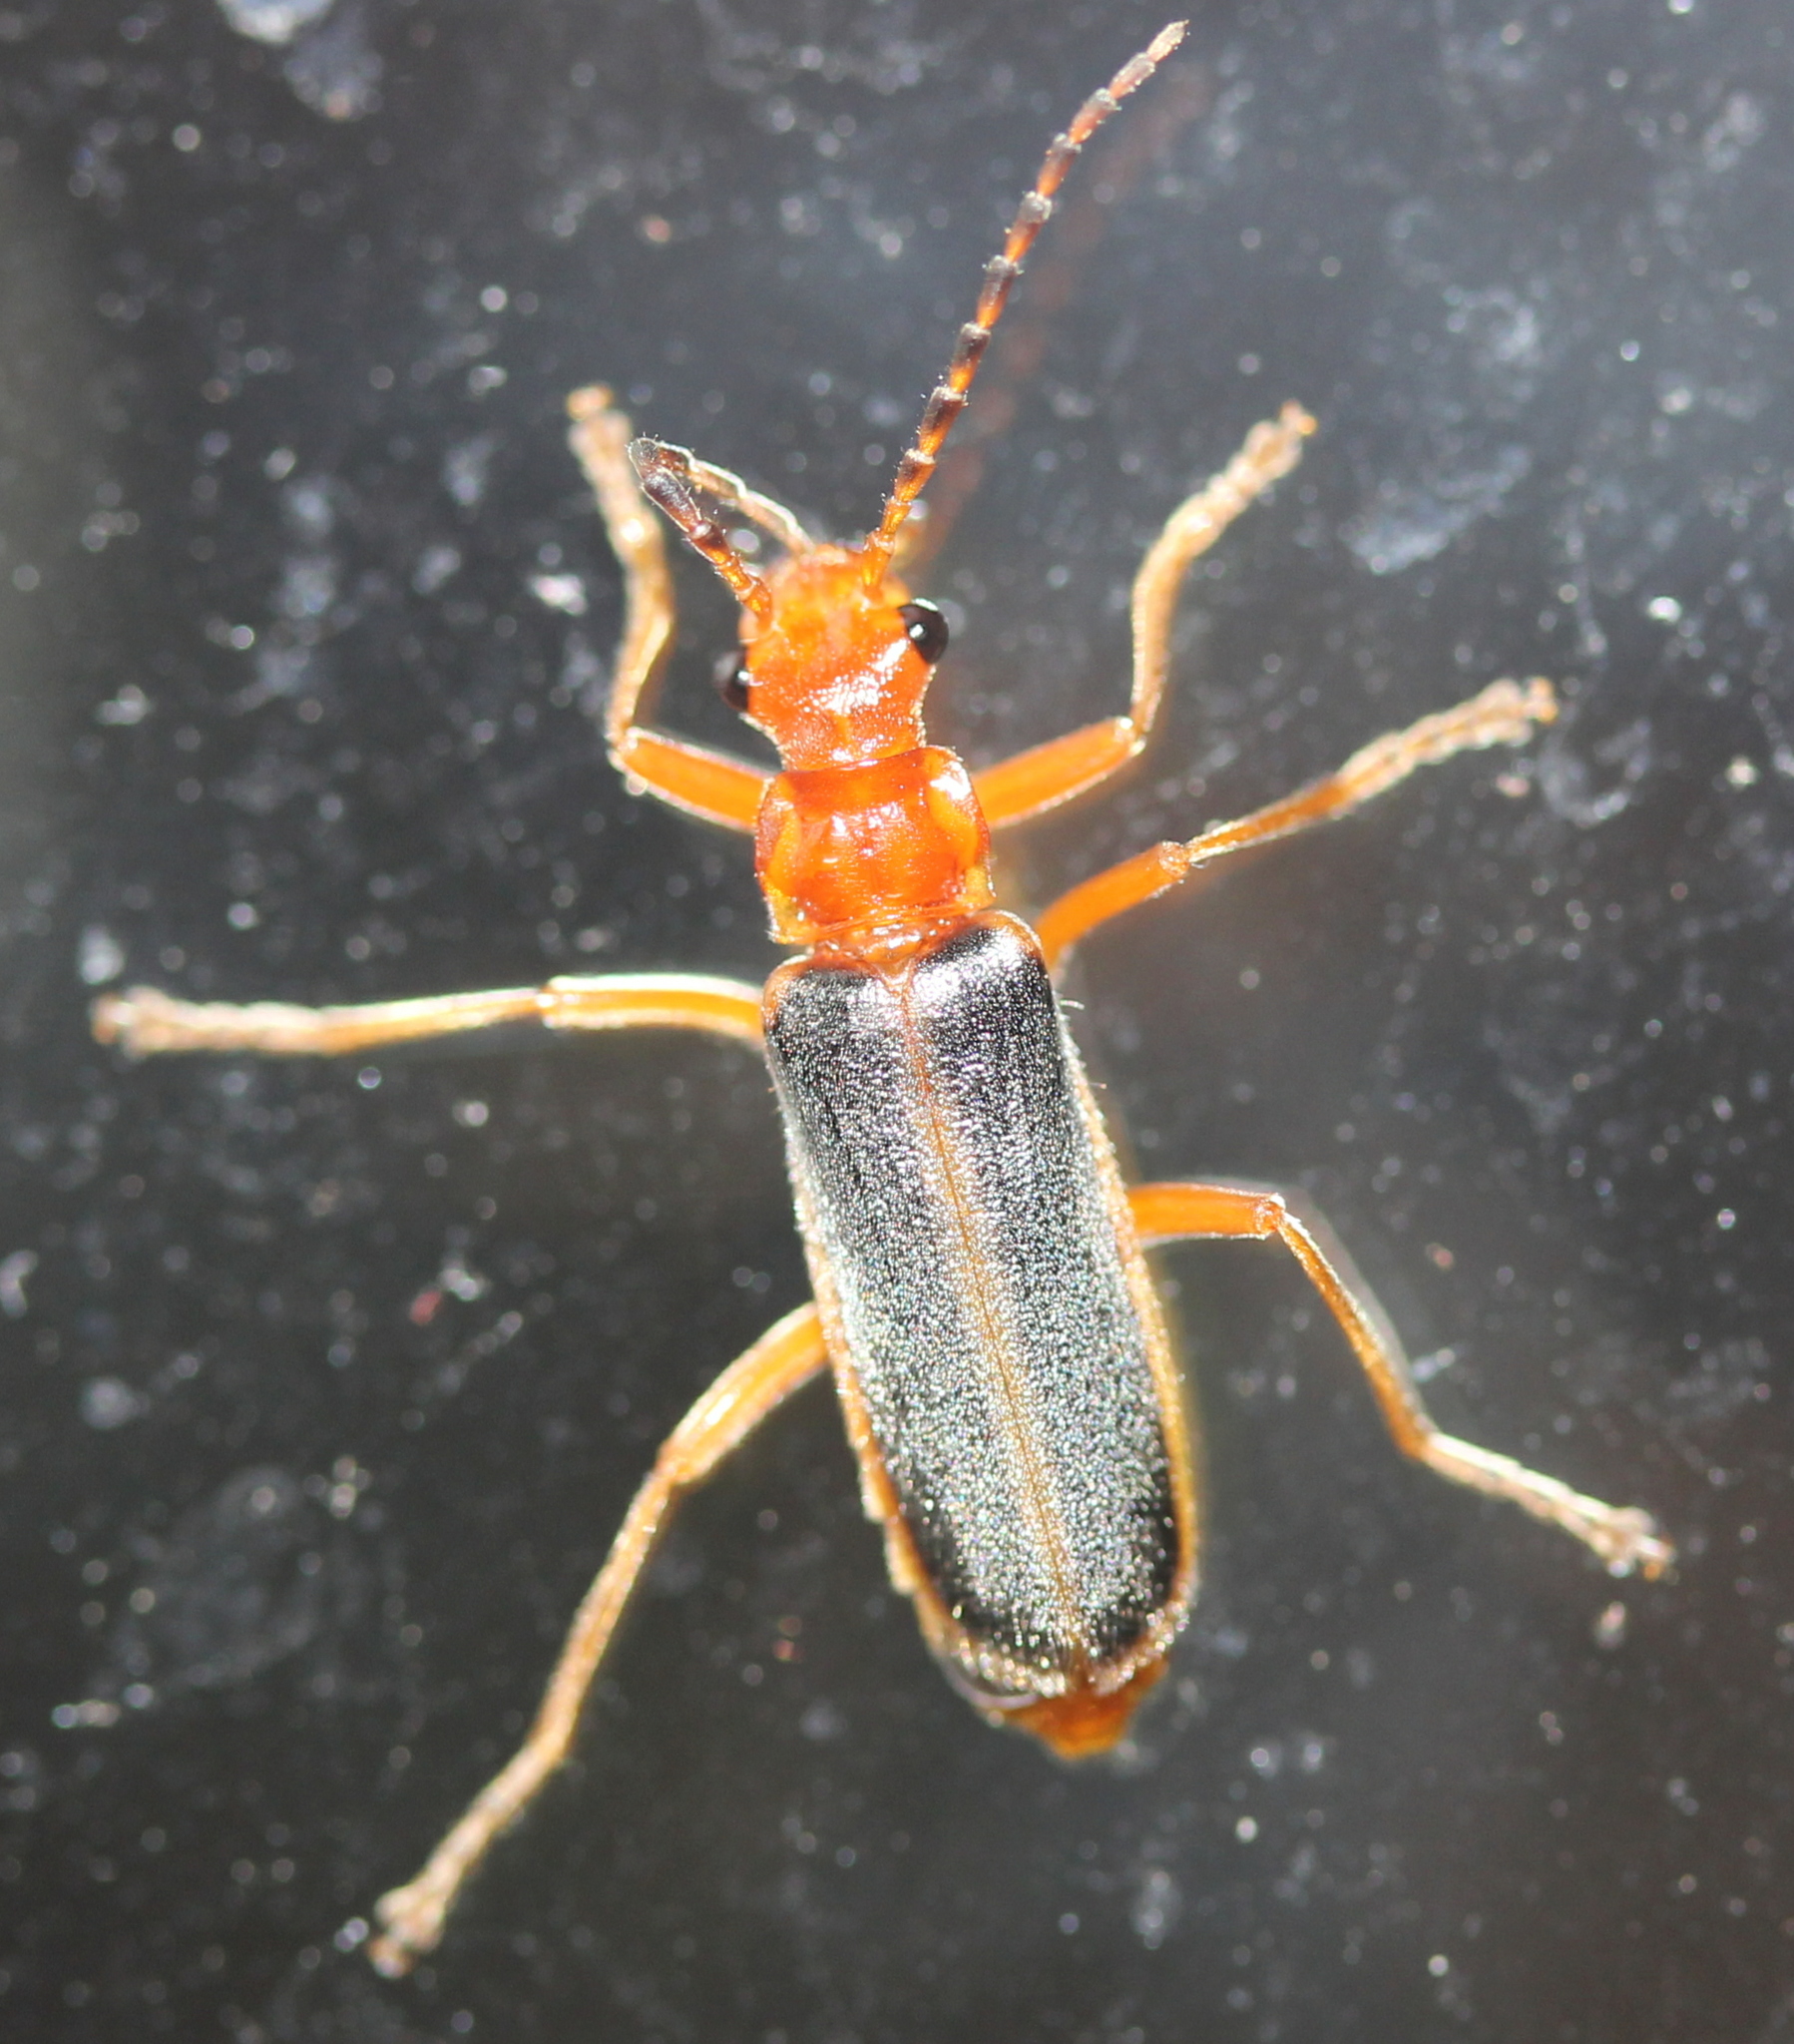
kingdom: Animalia
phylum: Arthropoda
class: Insecta
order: Coleoptera
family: Cantharidae
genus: Podabrus
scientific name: Podabrus tomentosus
